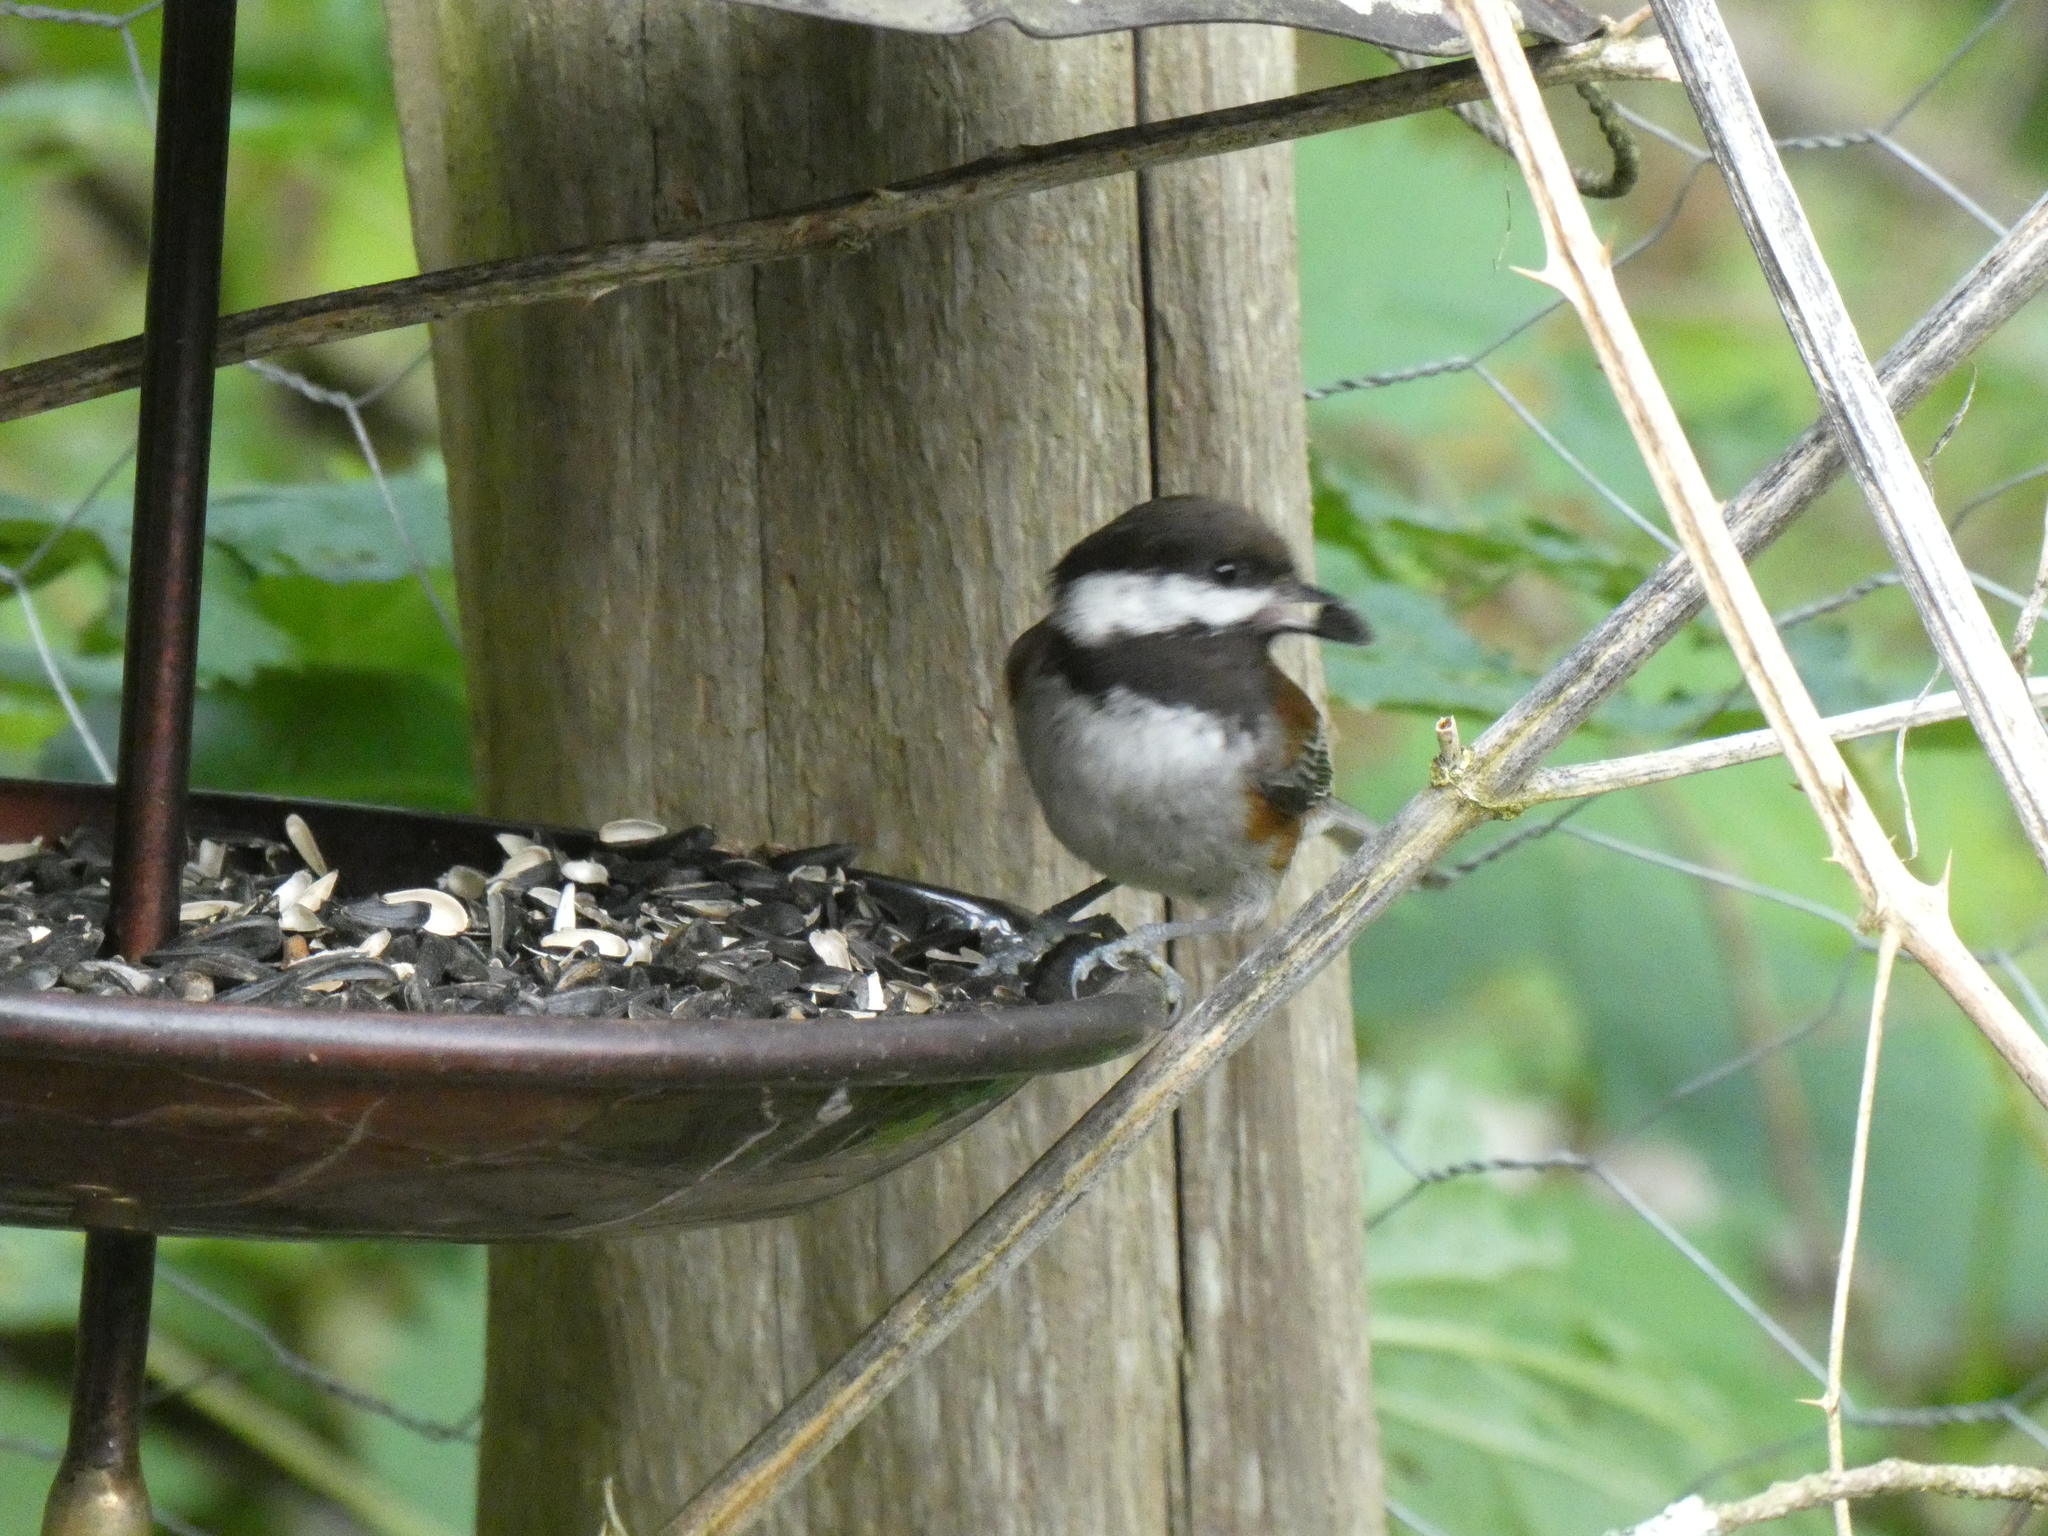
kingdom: Animalia
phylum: Chordata
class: Aves
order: Passeriformes
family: Paridae
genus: Poecile
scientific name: Poecile rufescens
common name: Chestnut-backed chickadee
